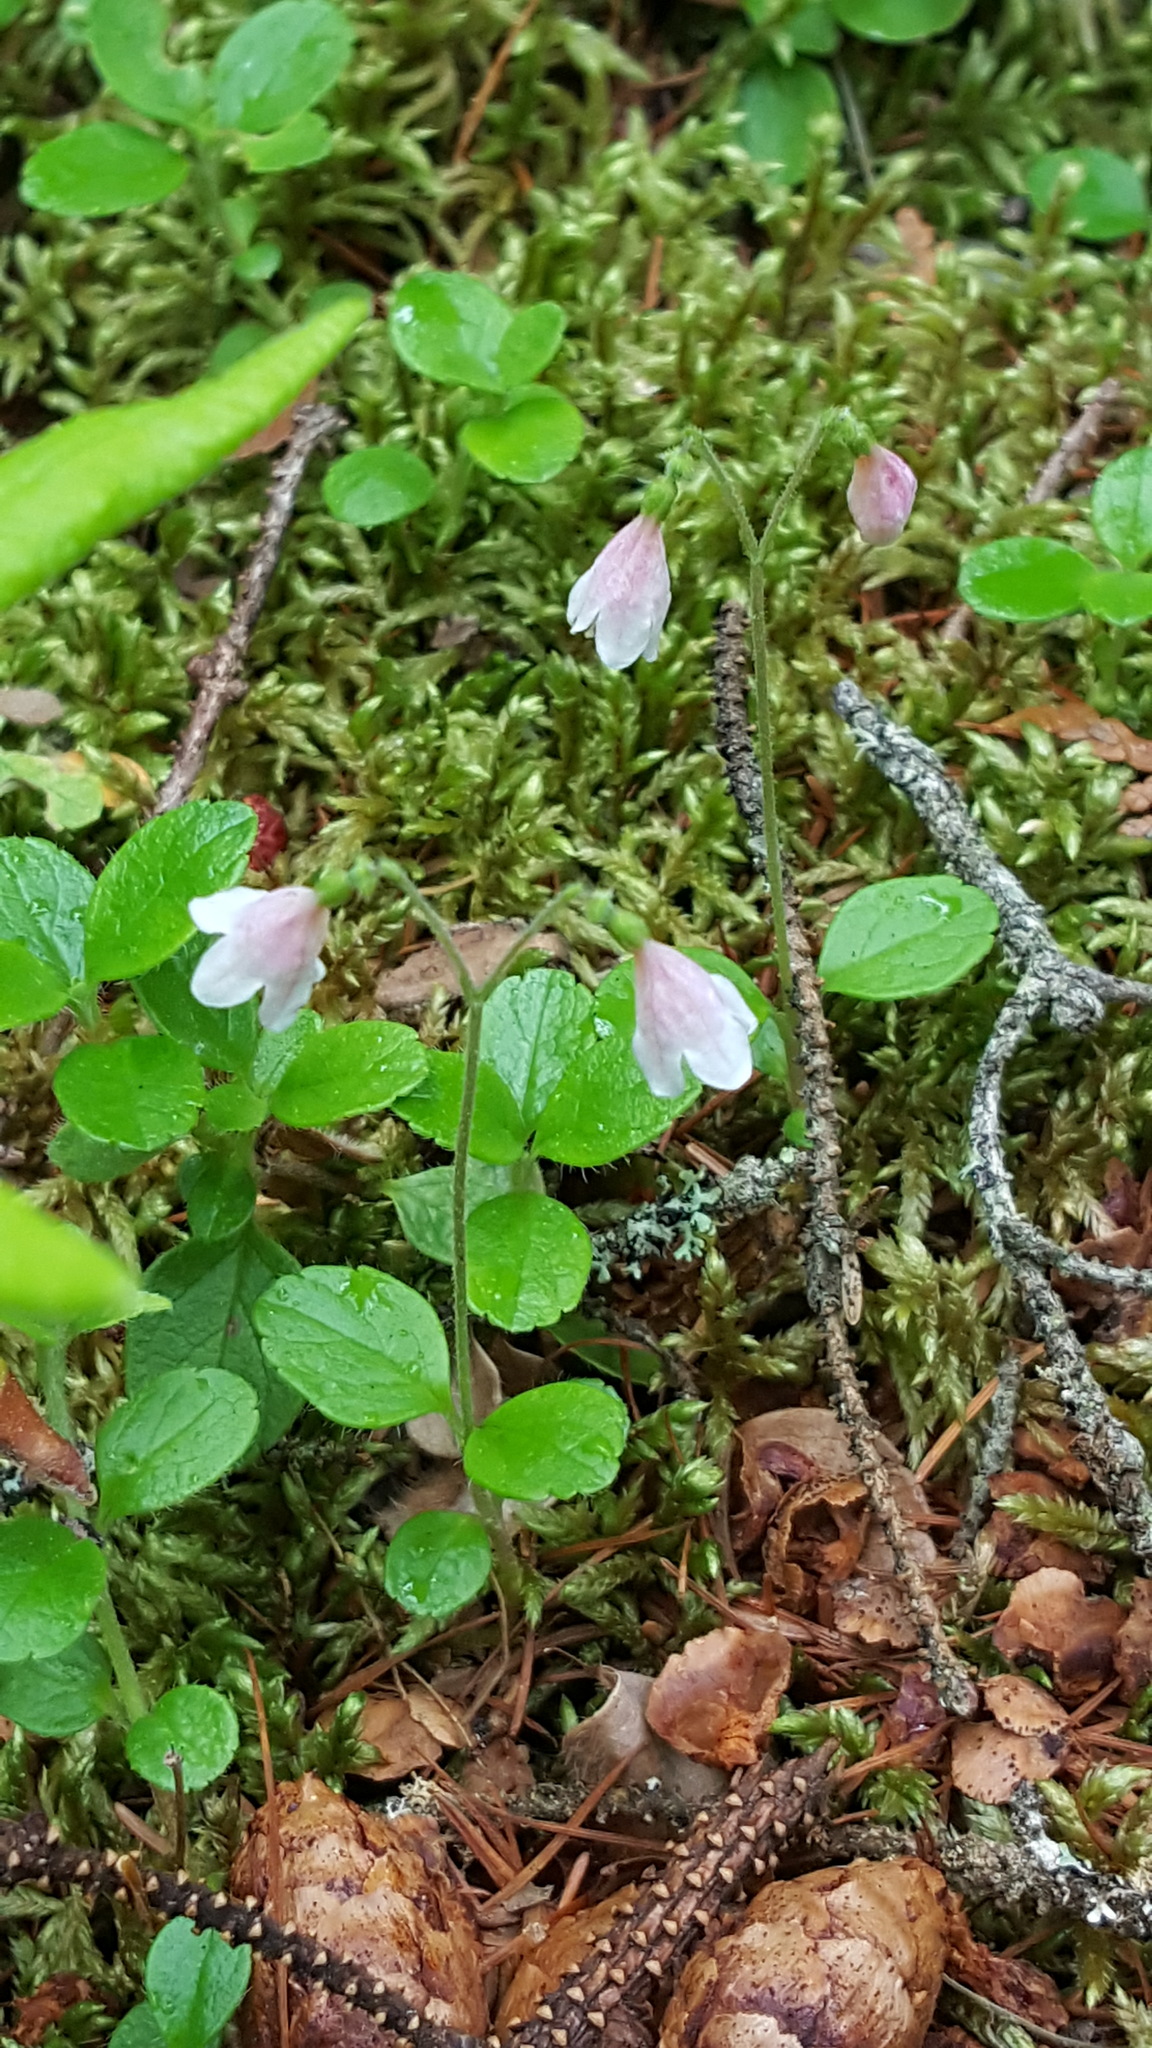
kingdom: Plantae
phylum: Tracheophyta
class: Magnoliopsida
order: Dipsacales
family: Caprifoliaceae
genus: Linnaea
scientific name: Linnaea borealis
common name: Twinflower
